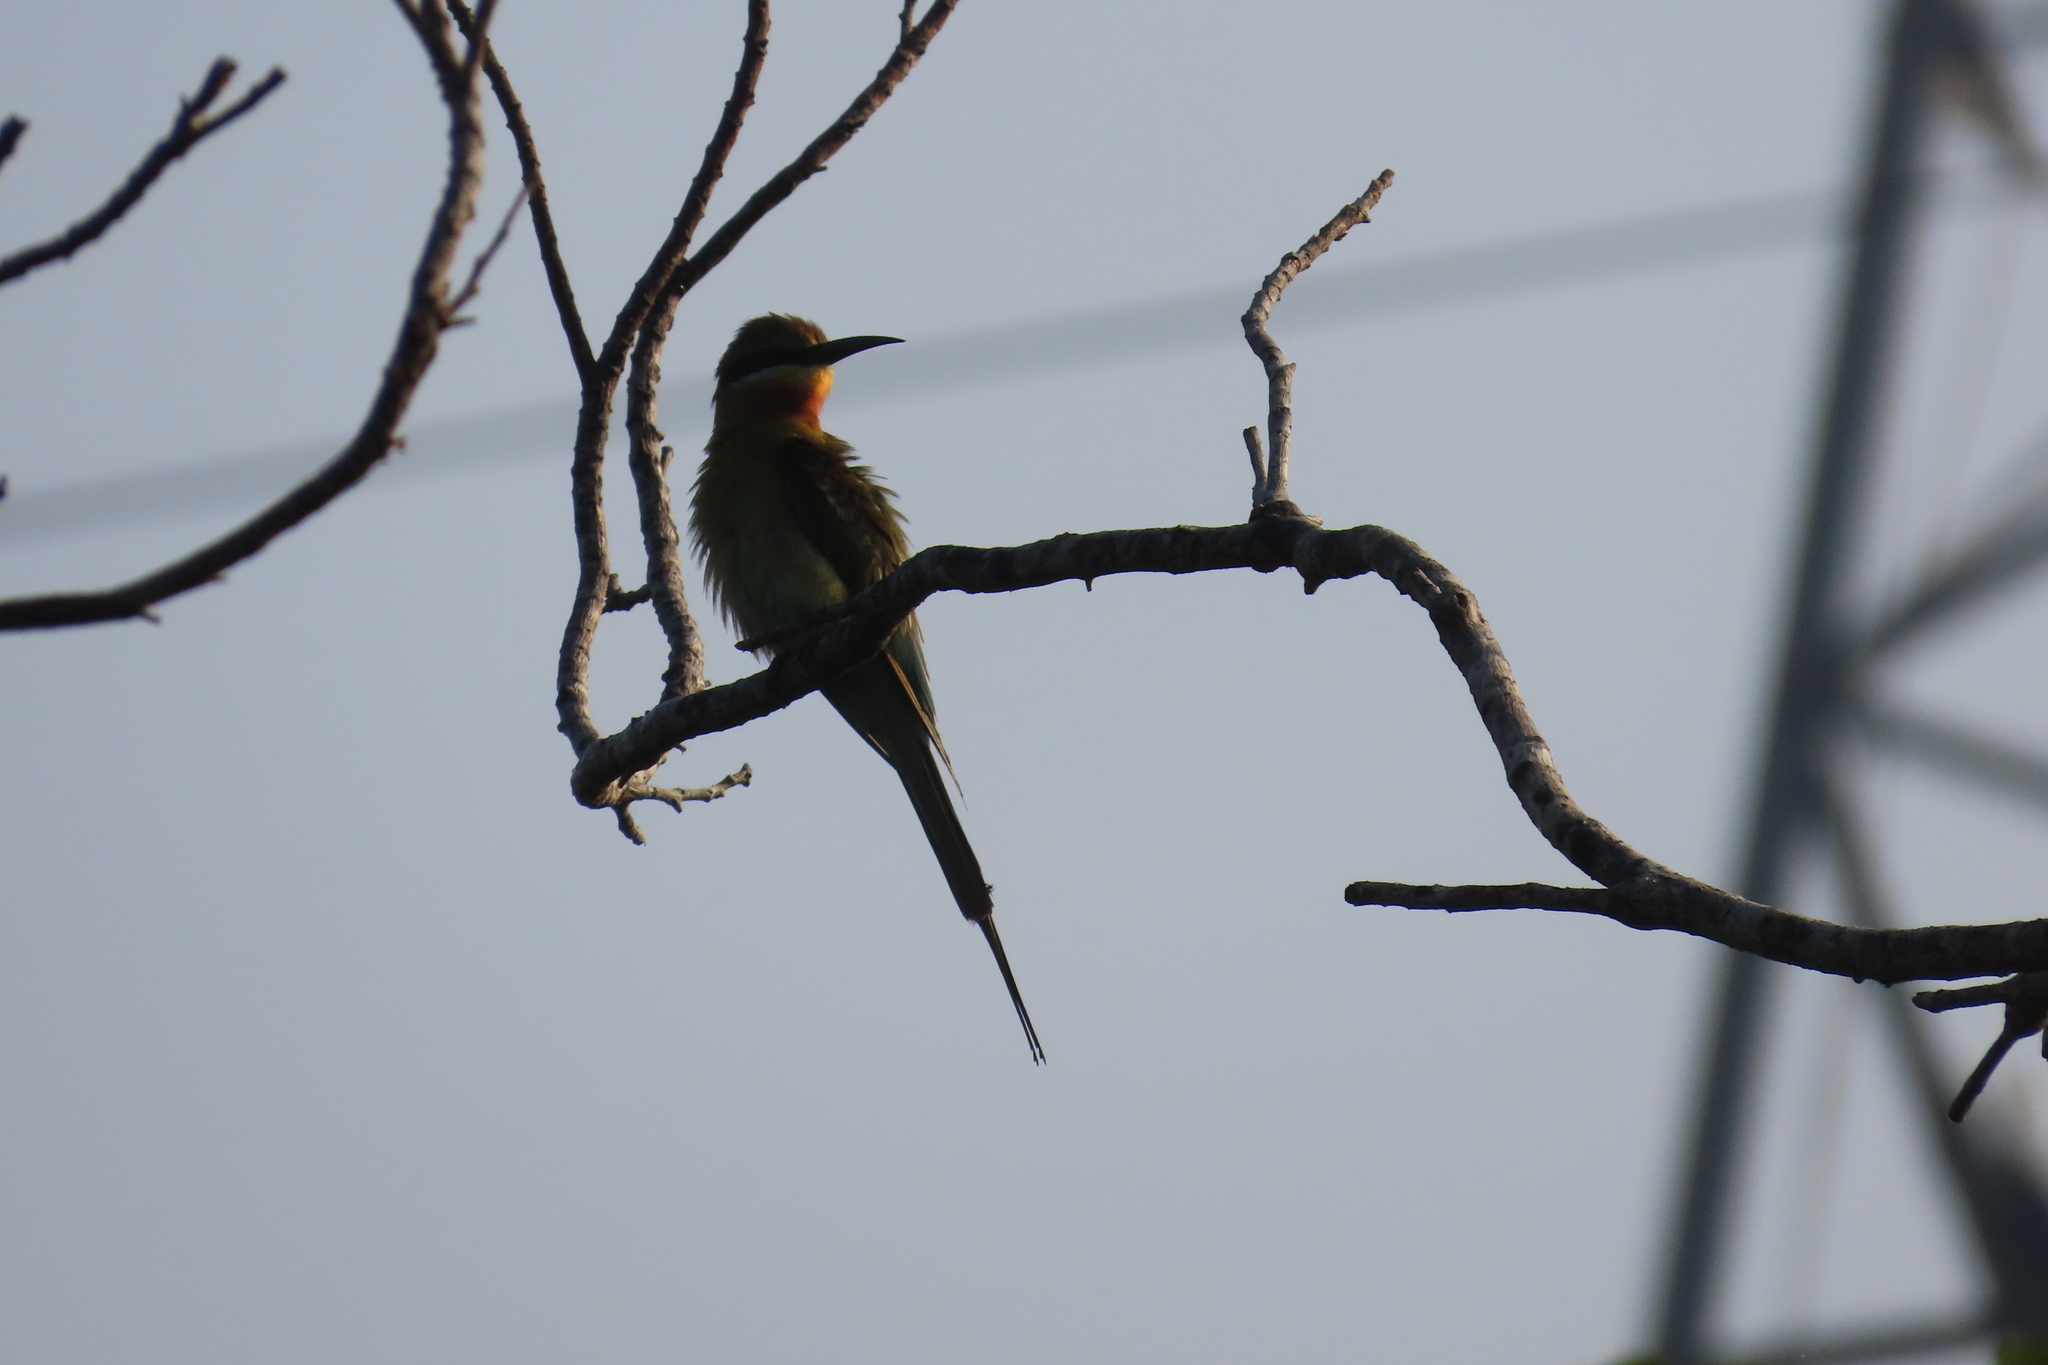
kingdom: Animalia
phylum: Chordata
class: Aves
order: Coraciiformes
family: Meropidae
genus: Merops
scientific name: Merops philippinus
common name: Blue-tailed bee-eater
